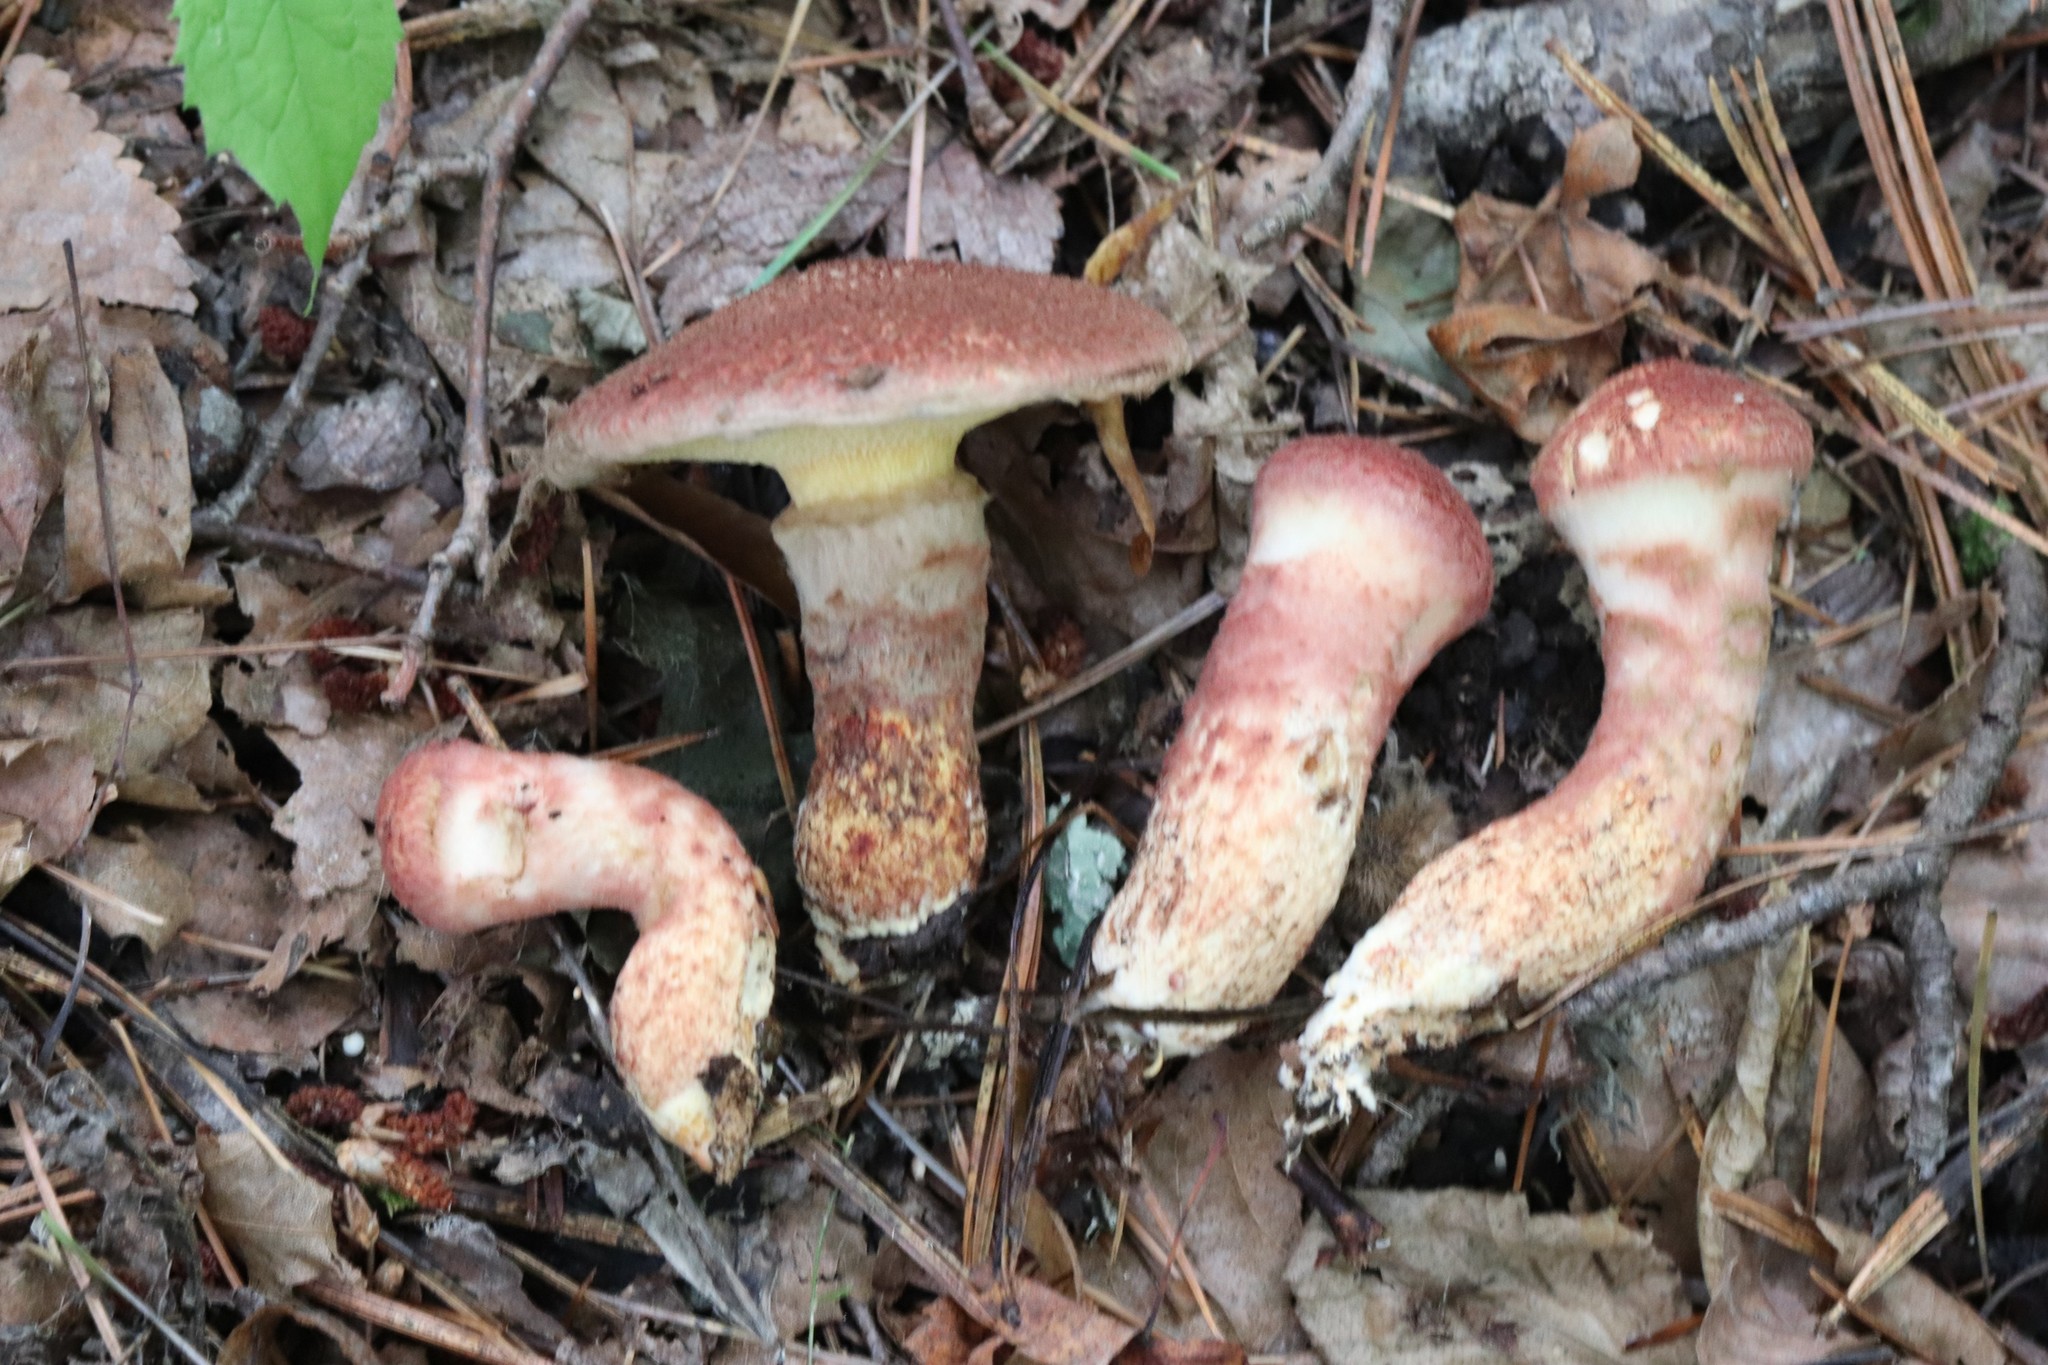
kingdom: Fungi
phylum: Basidiomycota
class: Agaricomycetes
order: Boletales
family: Suillaceae
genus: Suillus
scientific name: Suillus spraguei
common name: Painted suillus
